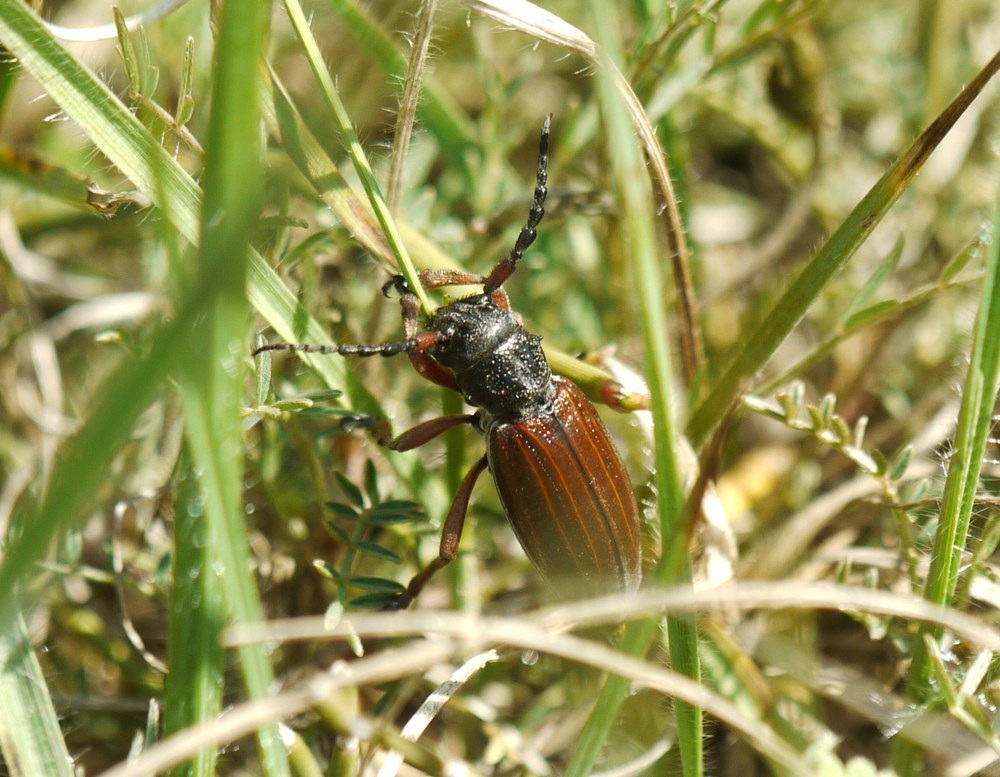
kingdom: Animalia
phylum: Arthropoda
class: Insecta
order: Coleoptera
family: Cerambycidae
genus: Dorcadion
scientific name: Dorcadion fulvum
